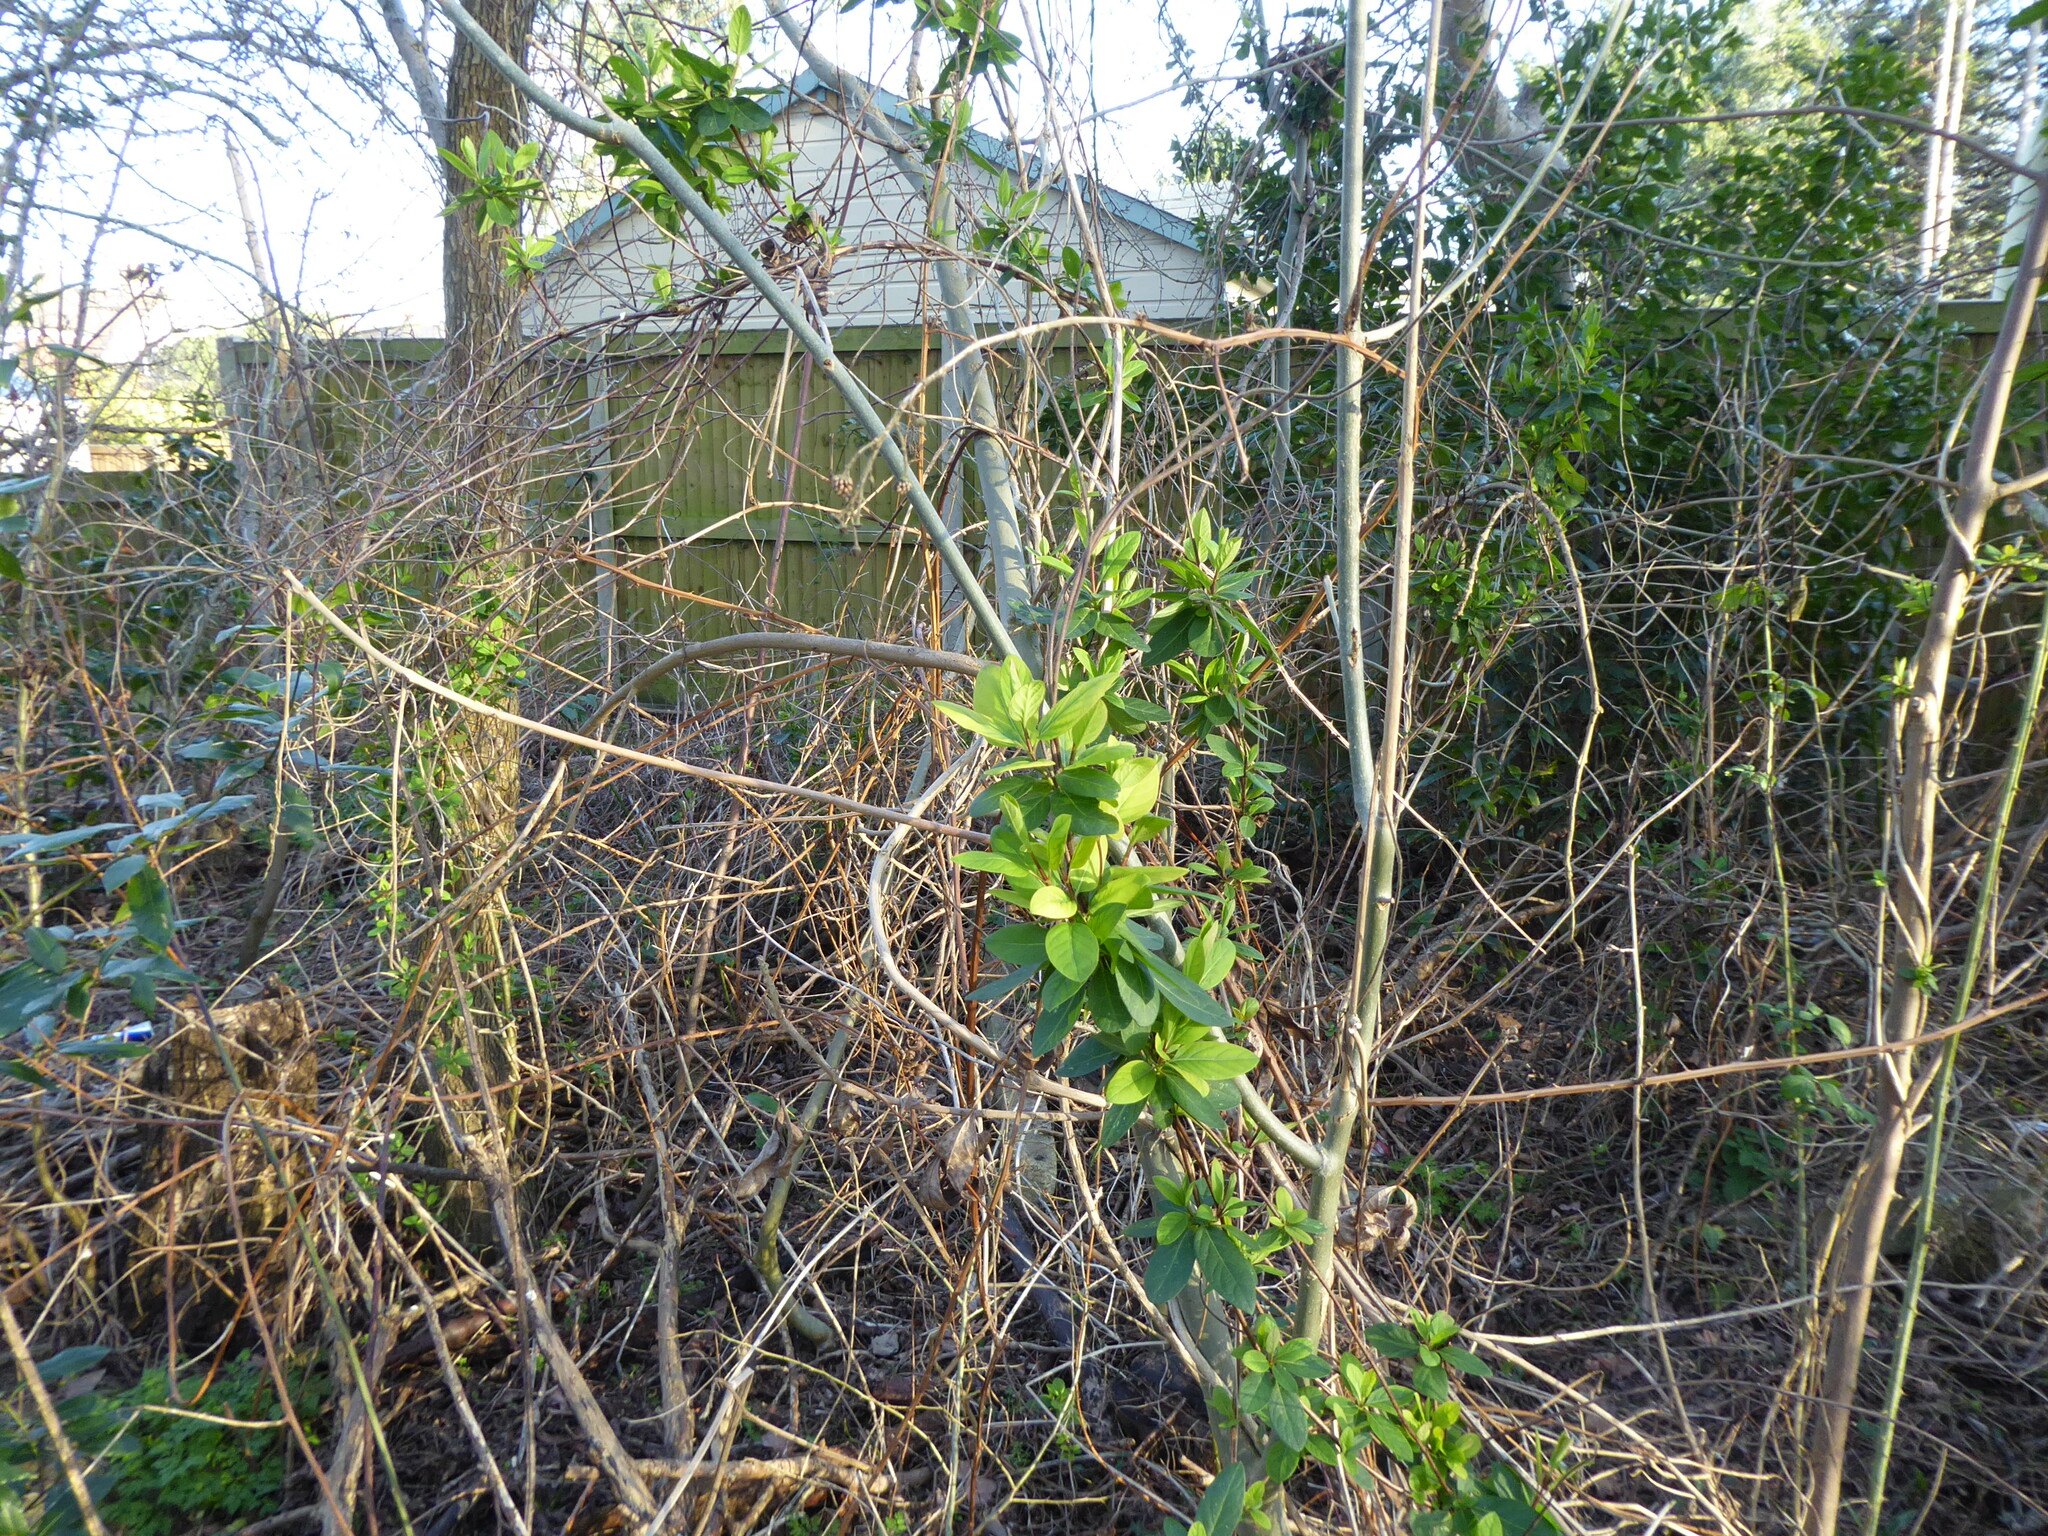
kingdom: Plantae
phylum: Tracheophyta
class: Magnoliopsida
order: Dipsacales
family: Caprifoliaceae
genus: Lonicera
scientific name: Lonicera japonica
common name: Japanese honeysuckle
